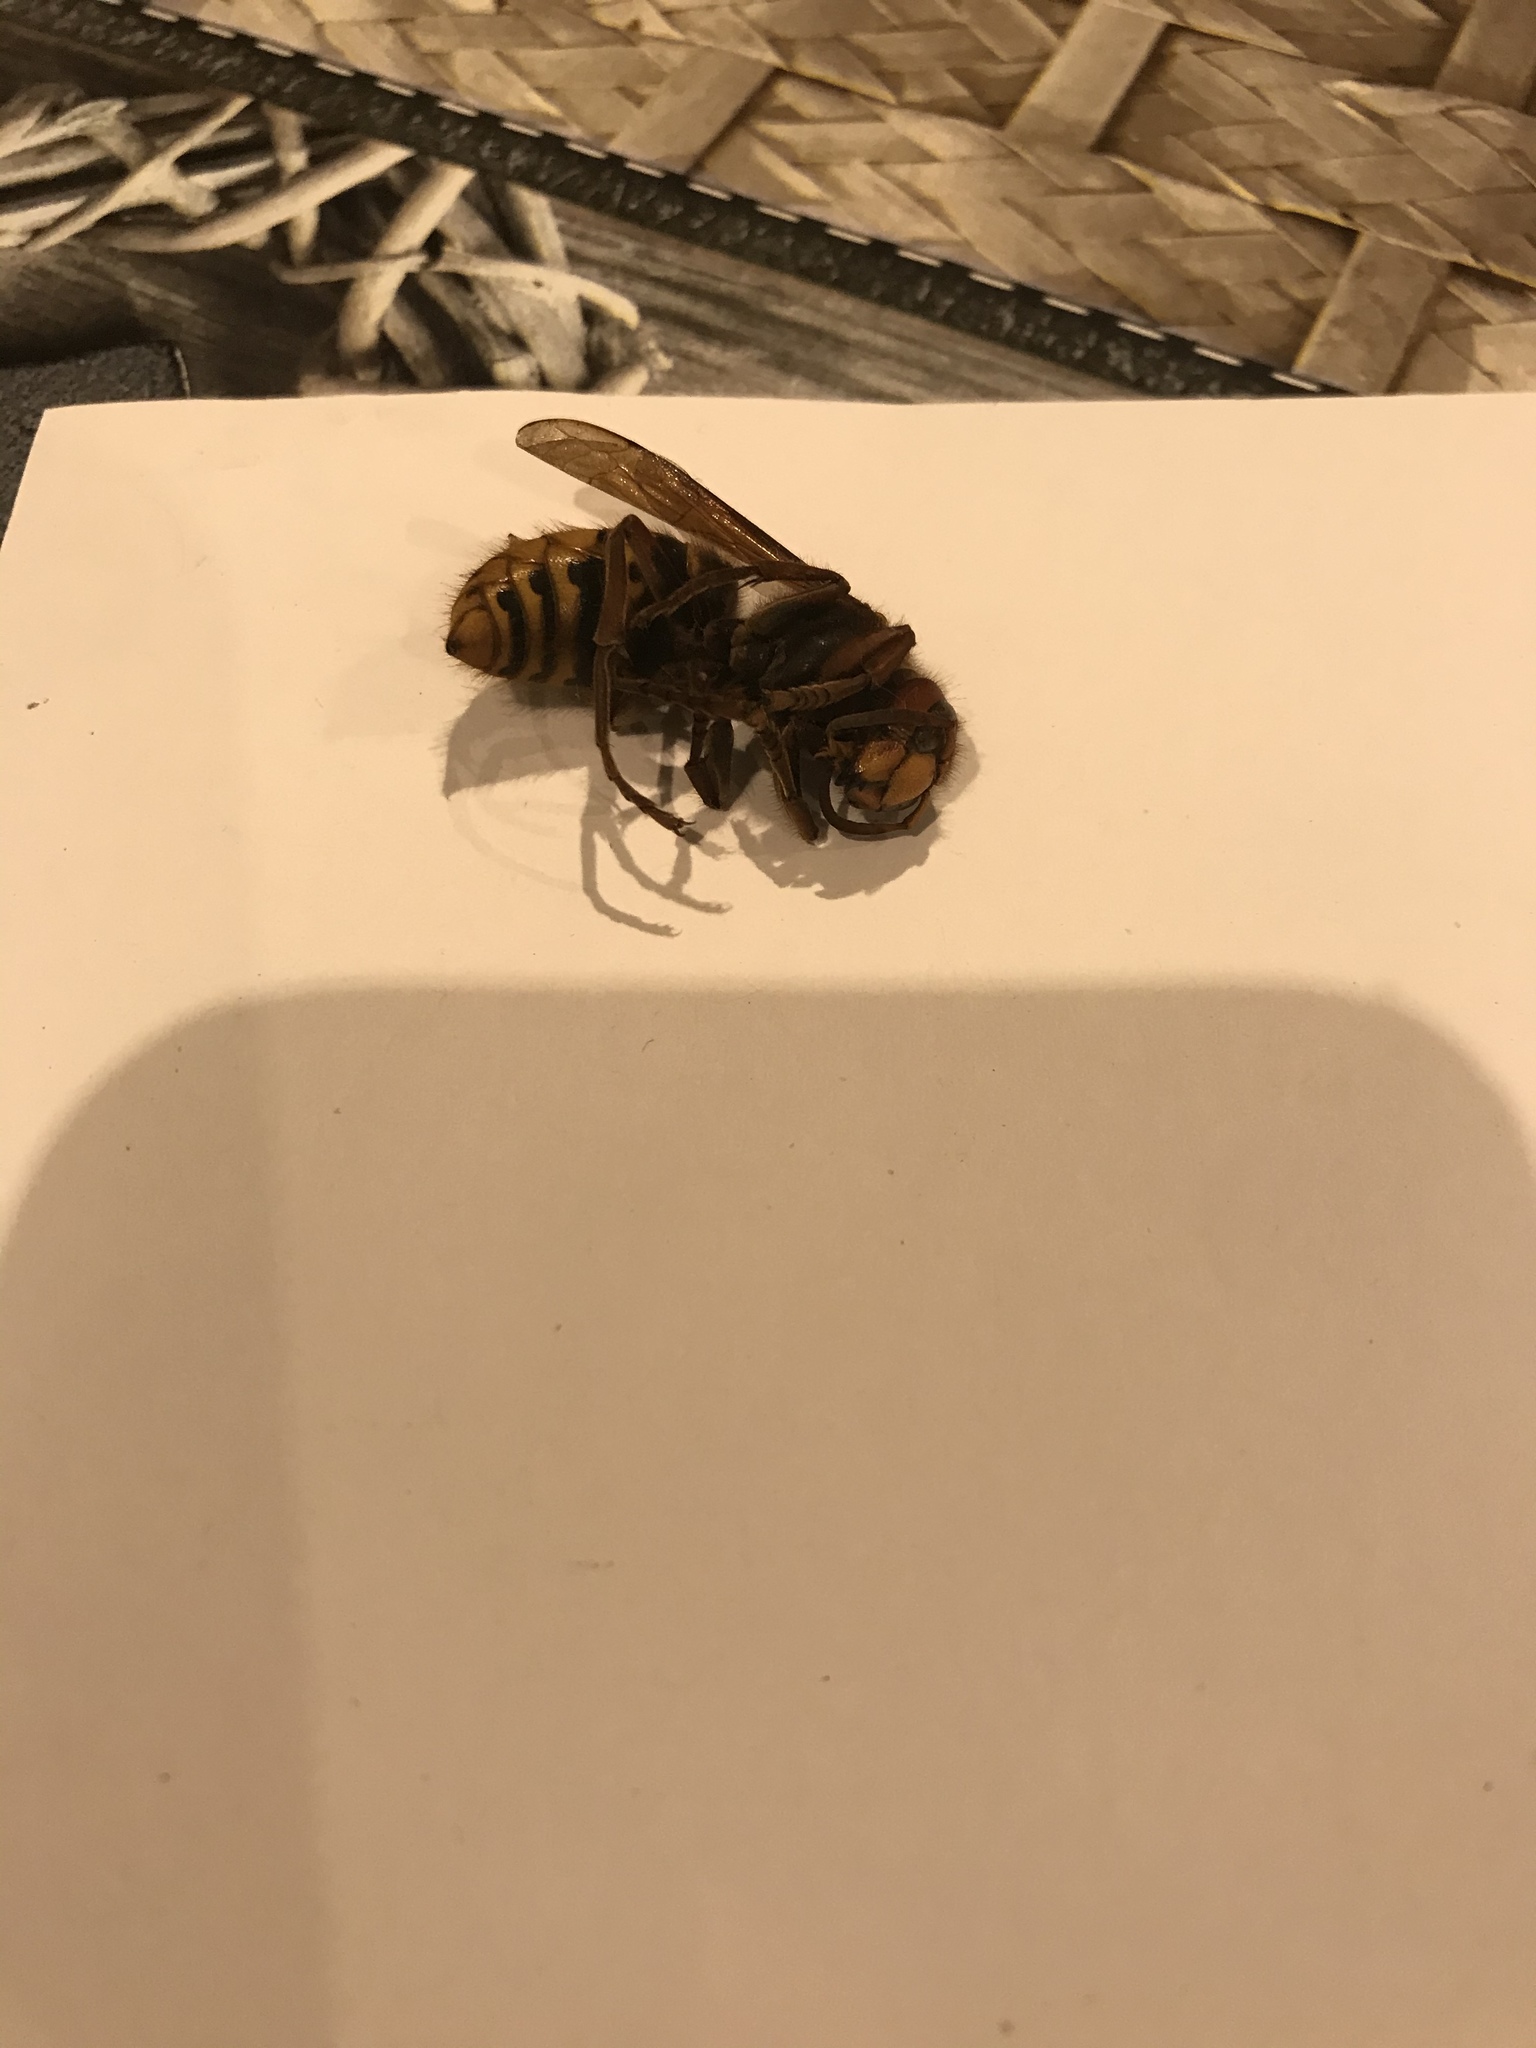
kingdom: Animalia
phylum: Arthropoda
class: Insecta
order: Hymenoptera
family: Vespidae
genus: Vespa
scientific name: Vespa crabro
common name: Hornet
